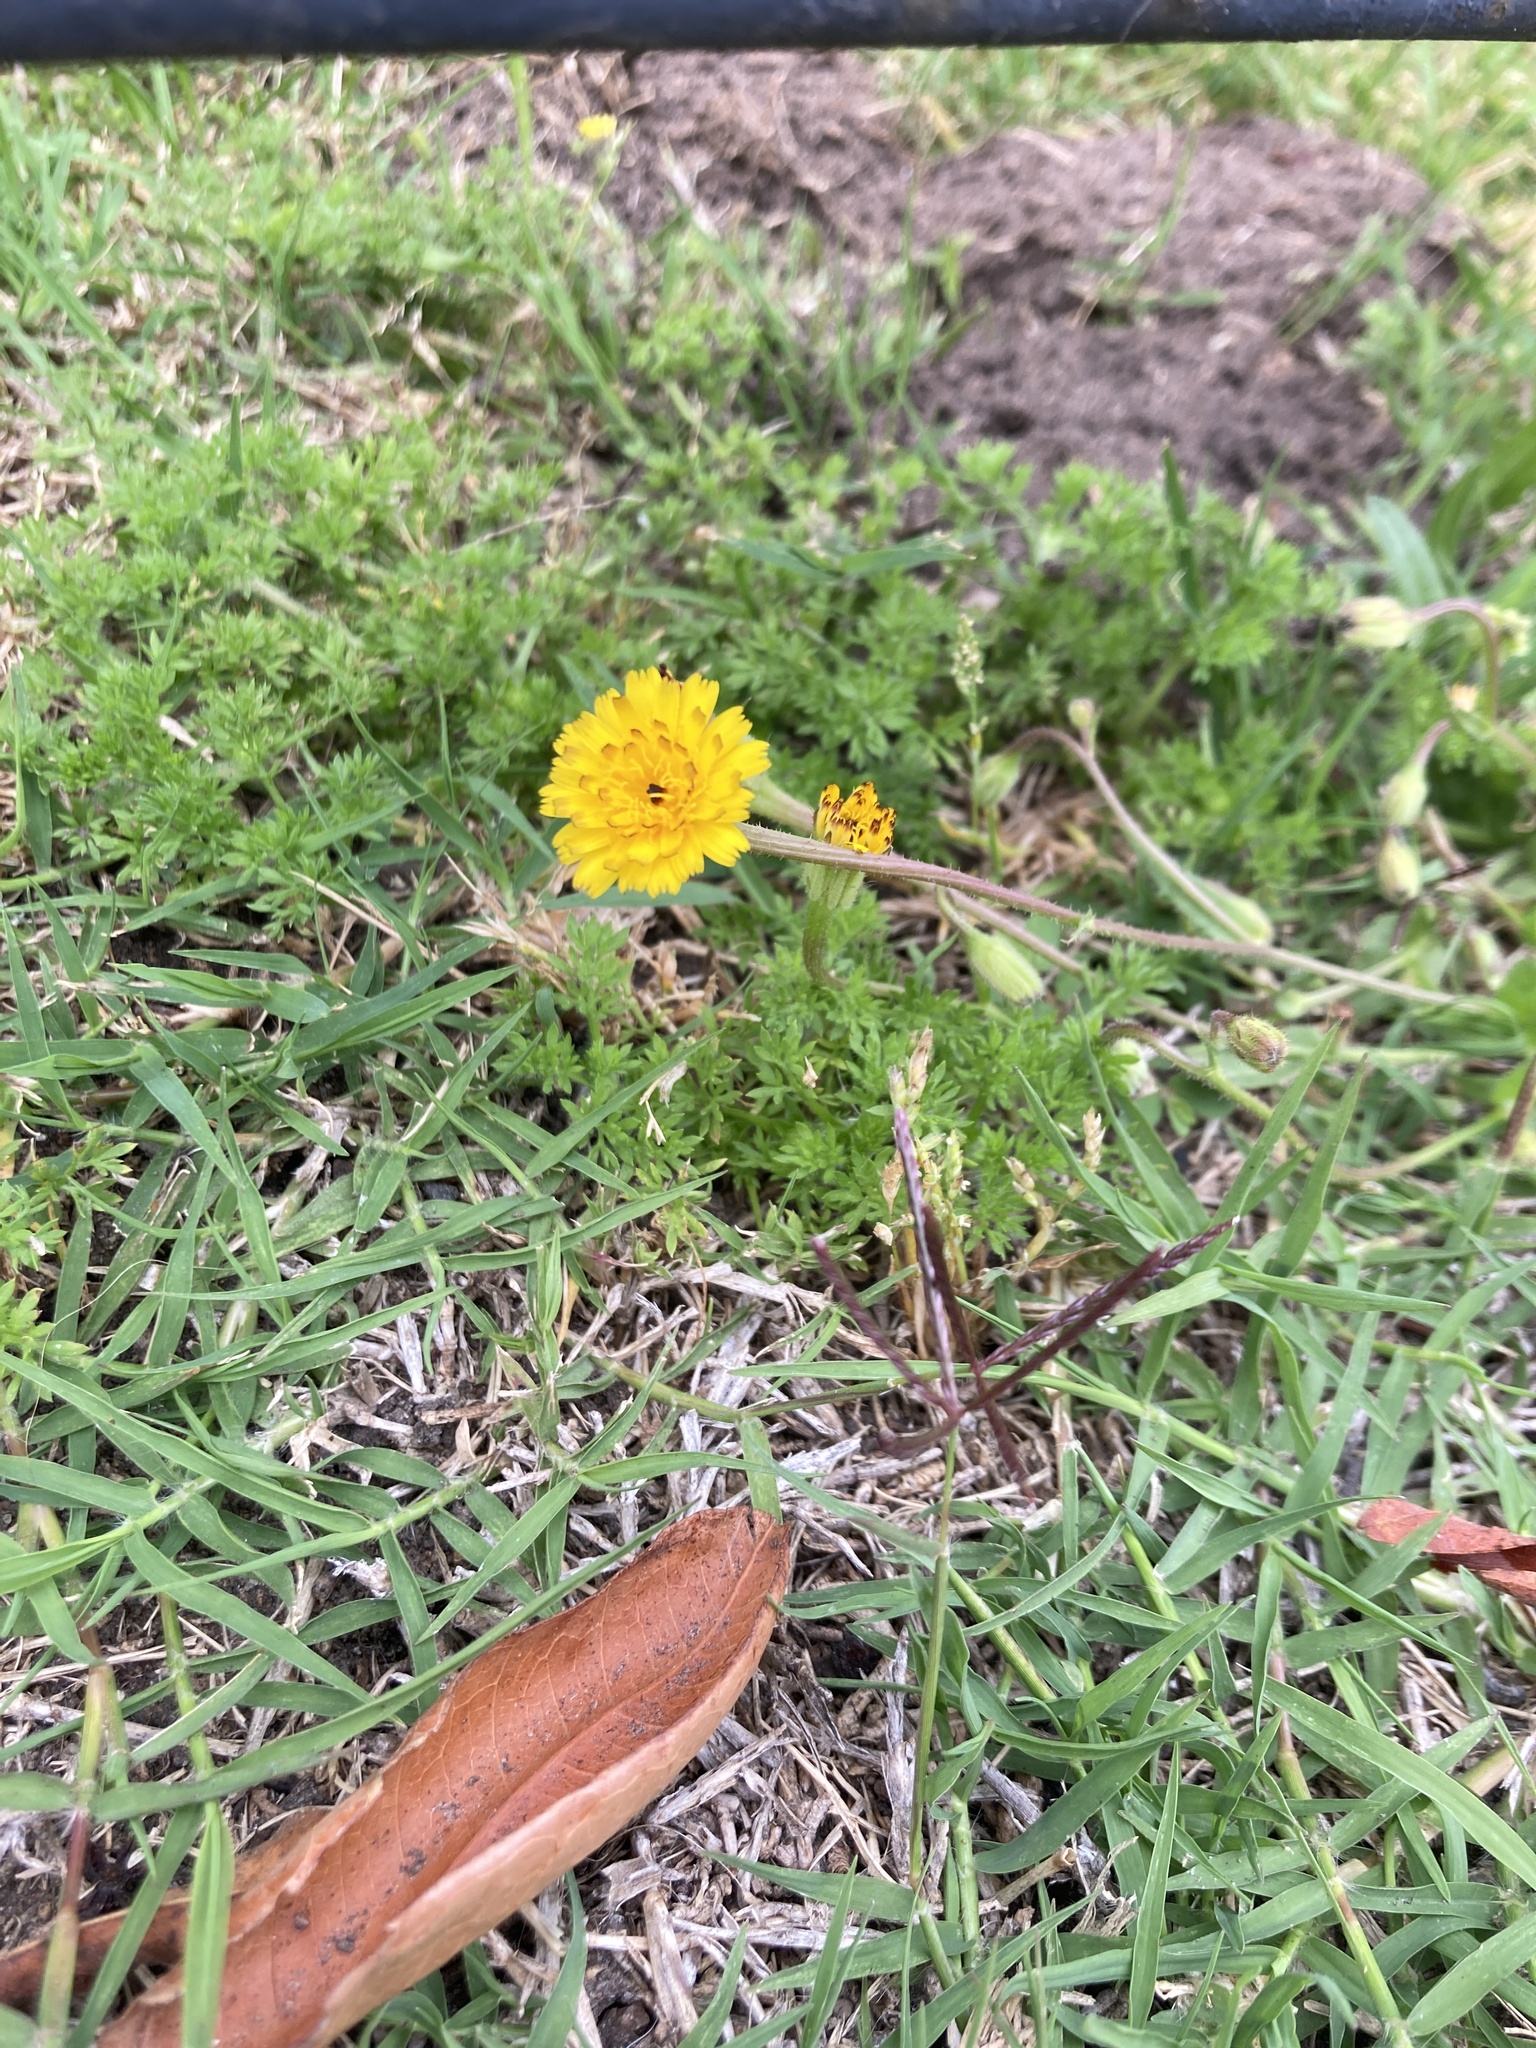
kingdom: Plantae
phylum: Tracheophyta
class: Magnoliopsida
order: Asterales
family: Asteraceae
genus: Hedypnois
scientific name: Hedypnois rhagadioloides
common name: Cretan weed
